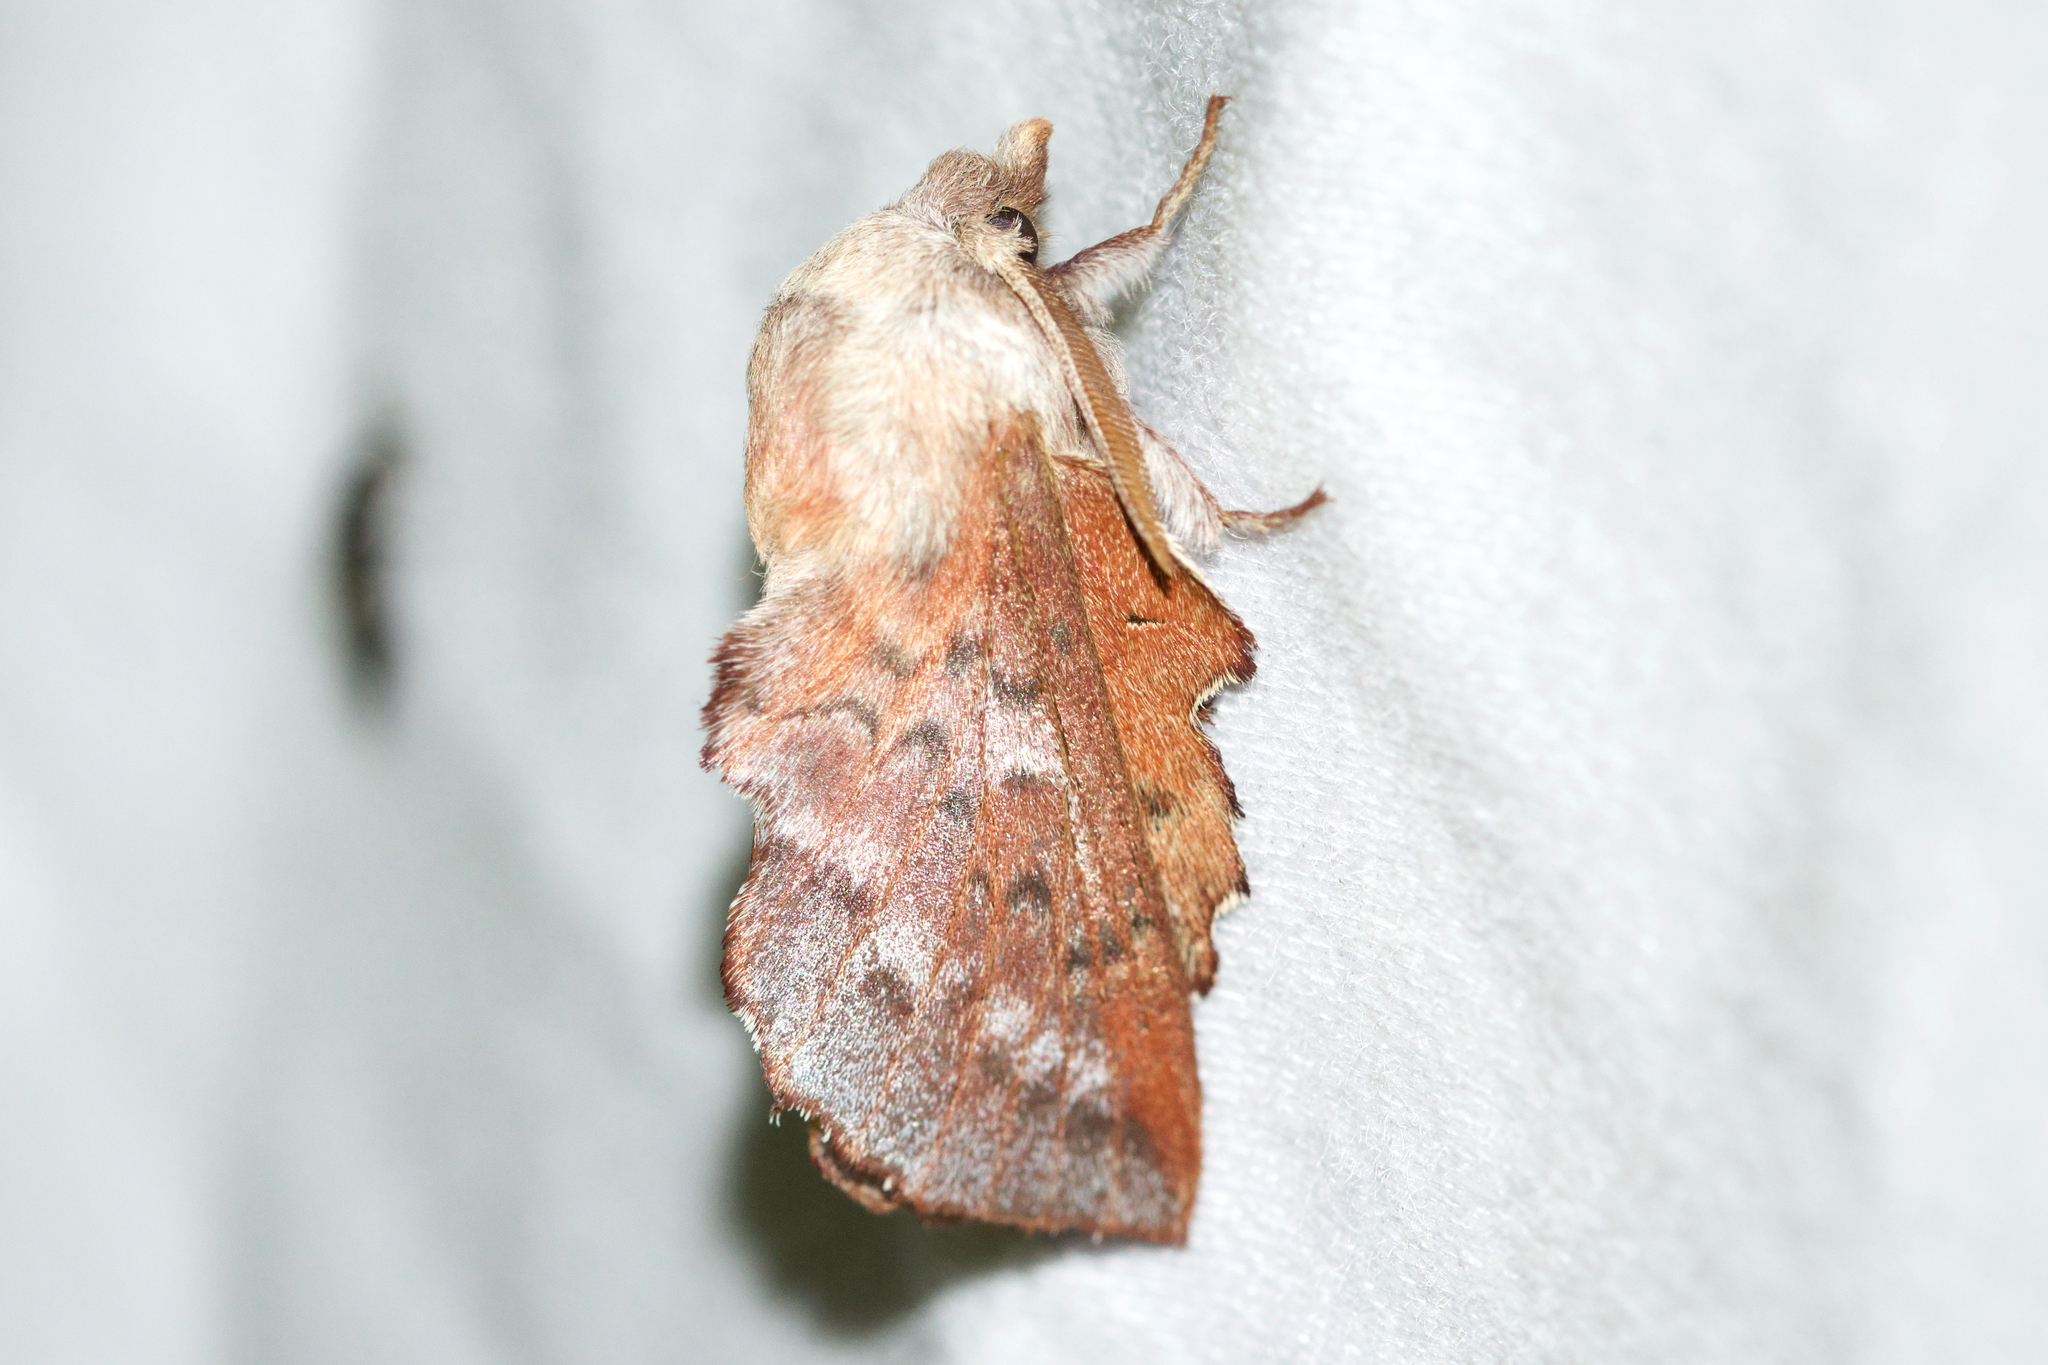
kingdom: Animalia
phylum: Arthropoda
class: Insecta
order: Lepidoptera
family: Lasiocampidae
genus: Phyllodesma
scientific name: Phyllodesma americana
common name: American lappet moth
